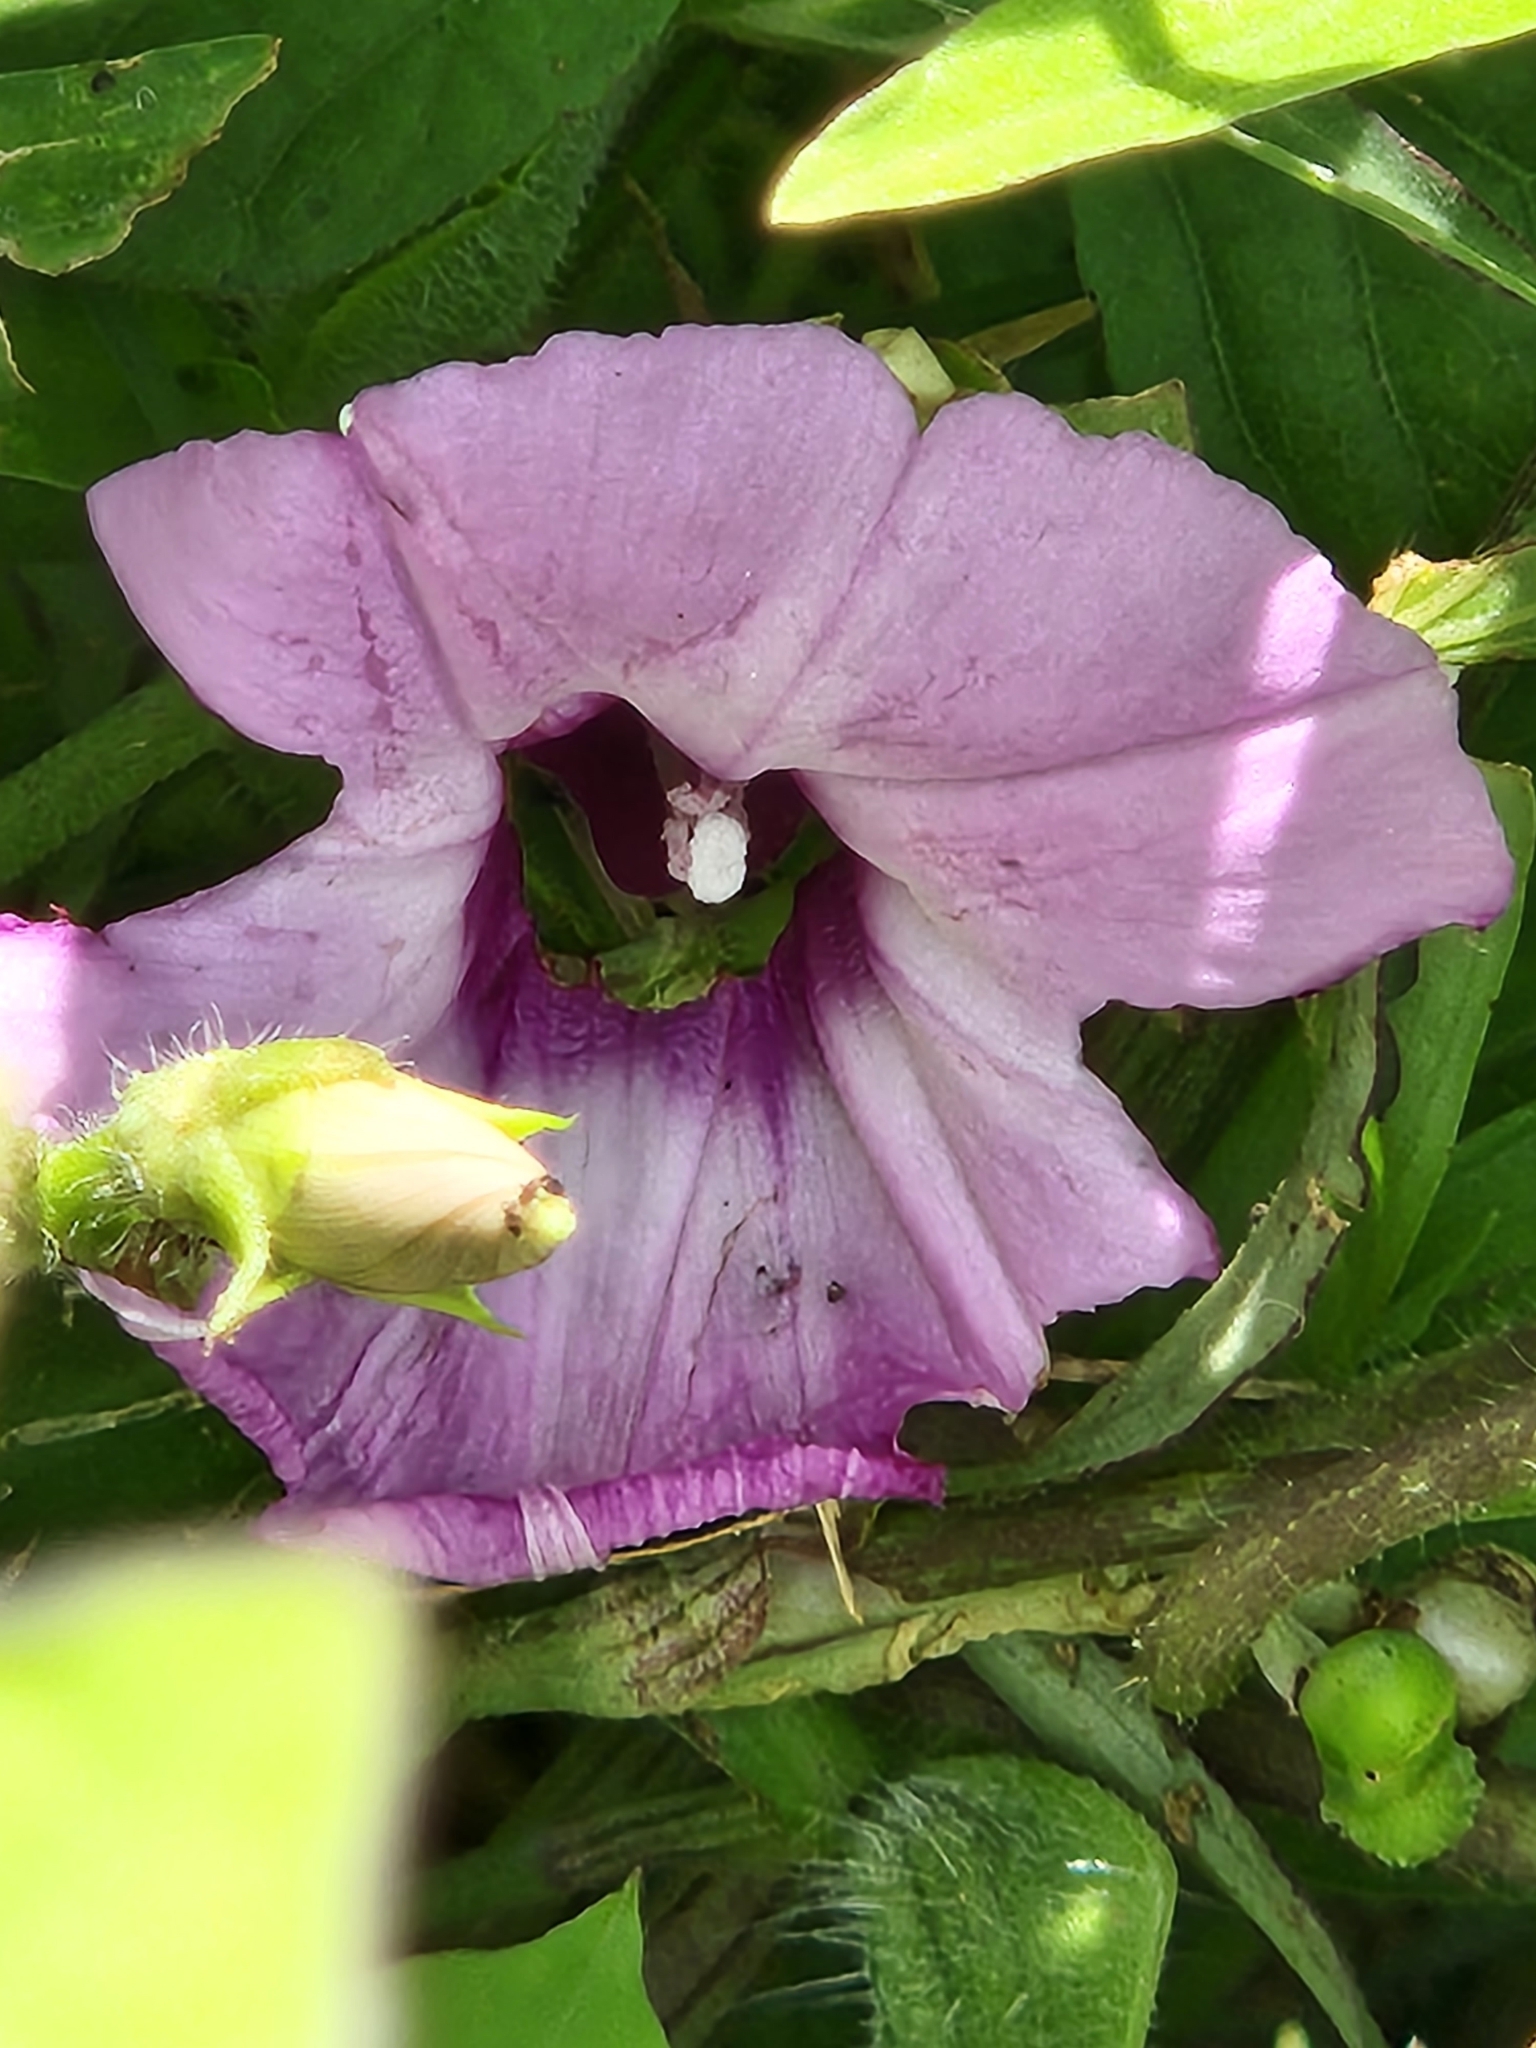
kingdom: Plantae
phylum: Tracheophyta
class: Magnoliopsida
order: Solanales
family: Convolvulaceae
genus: Ipomoea
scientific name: Ipomoea cordatotriloba
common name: Cotton morning glory
